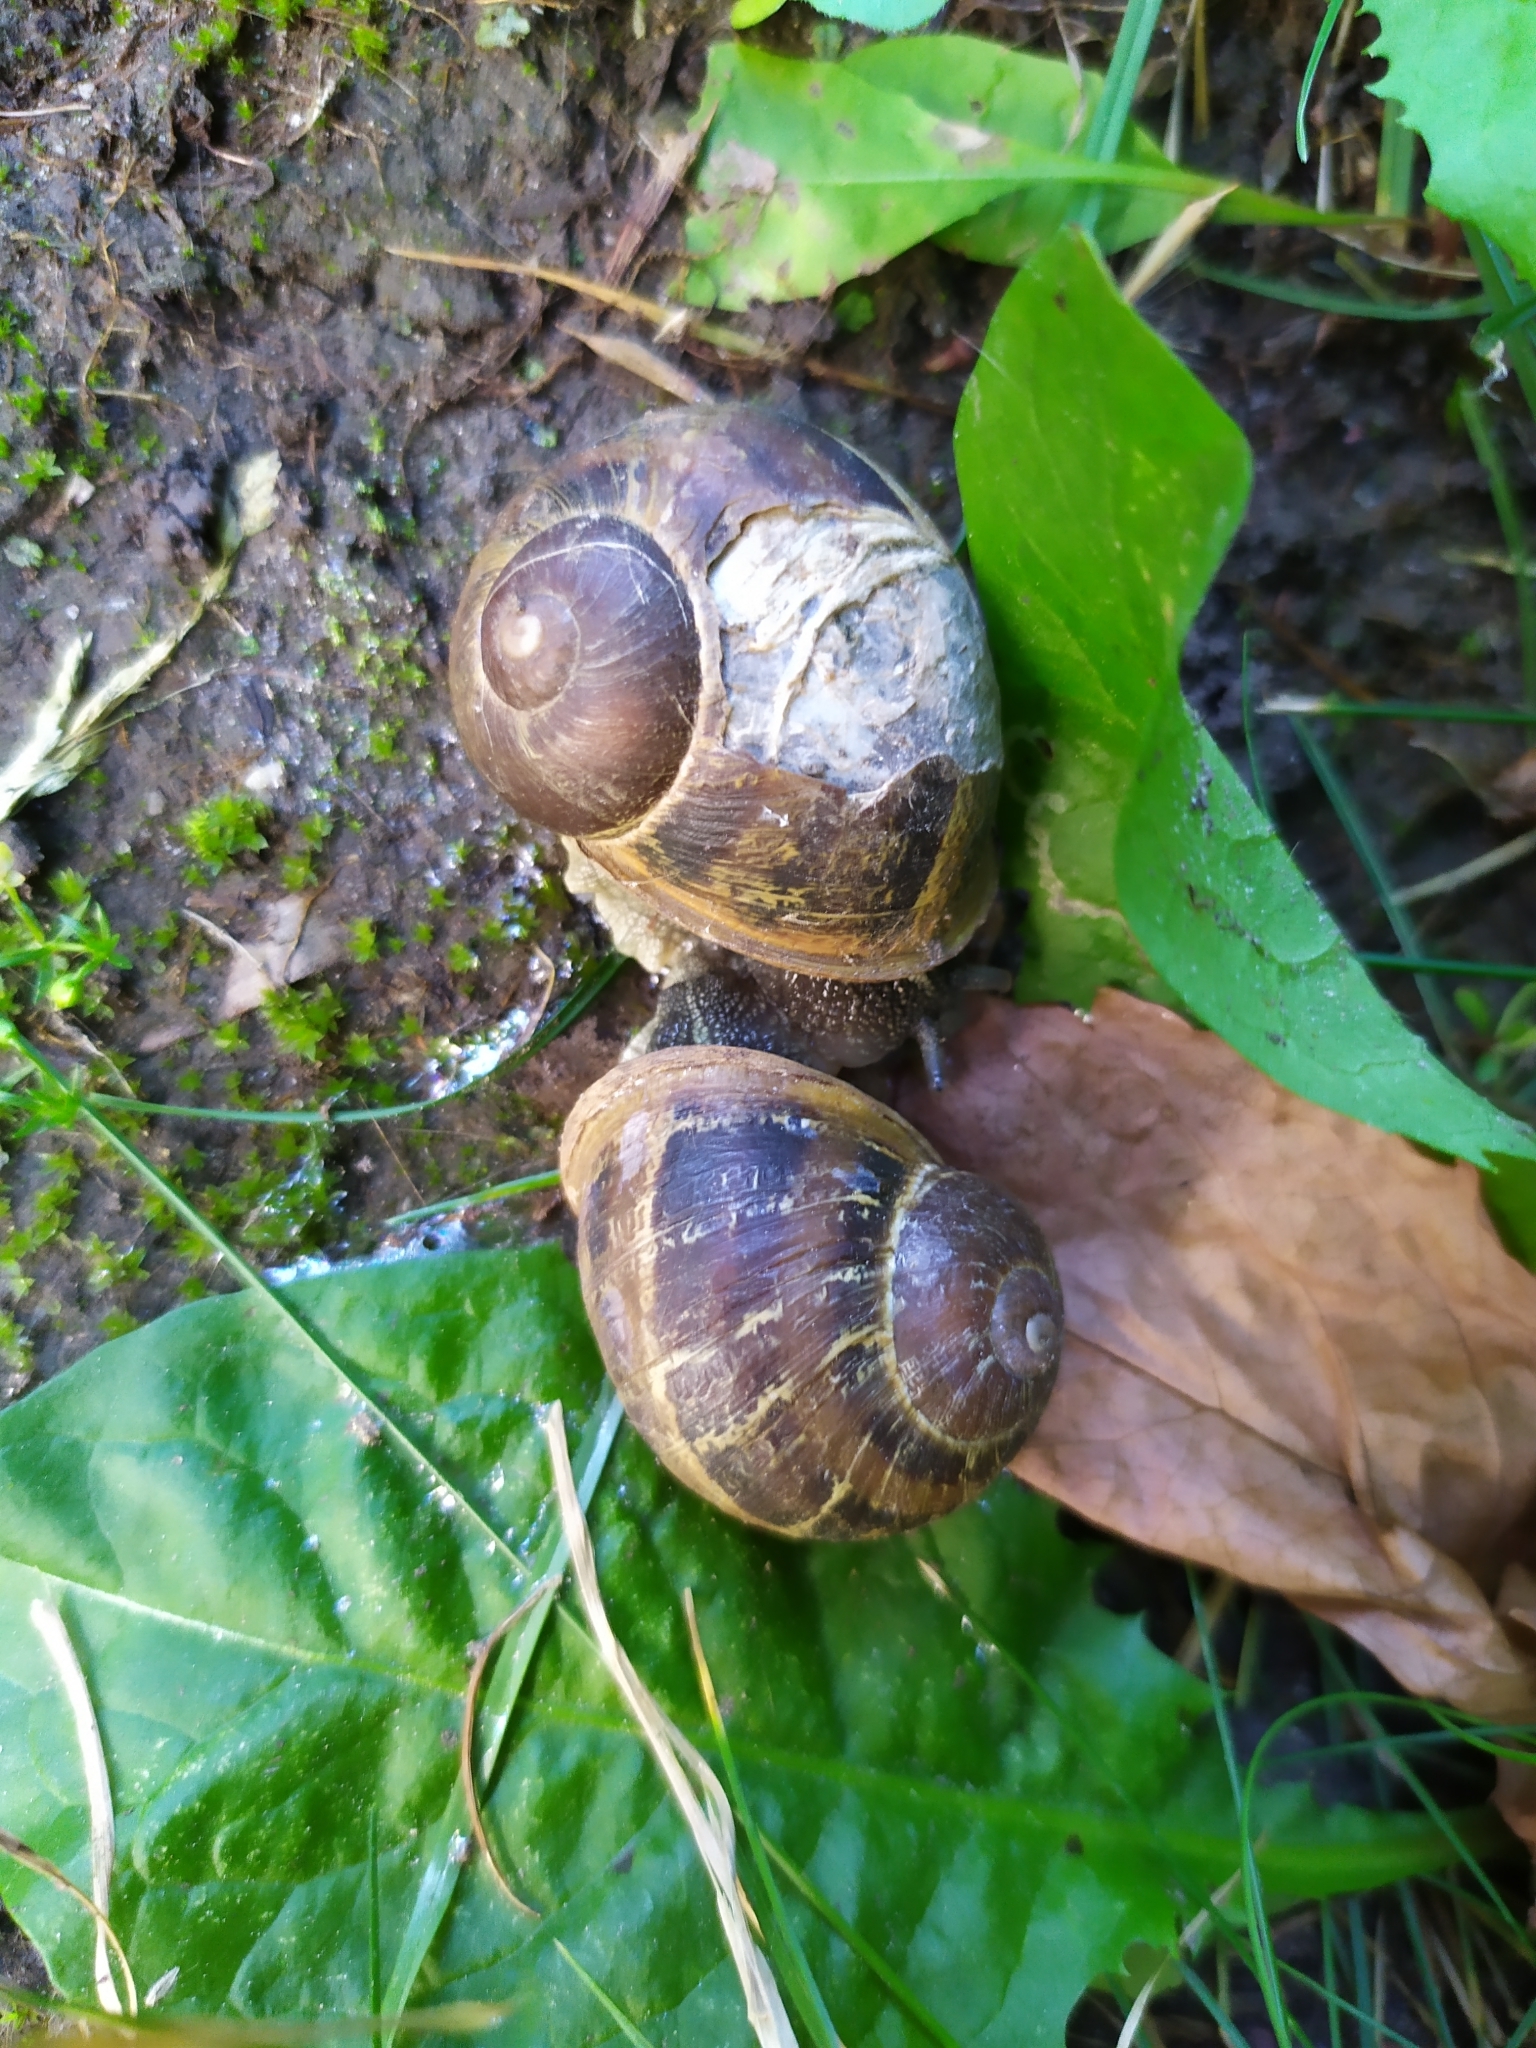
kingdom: Animalia
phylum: Mollusca
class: Gastropoda
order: Stylommatophora
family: Helicidae
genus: Cornu
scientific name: Cornu aspersum
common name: Brown garden snail
